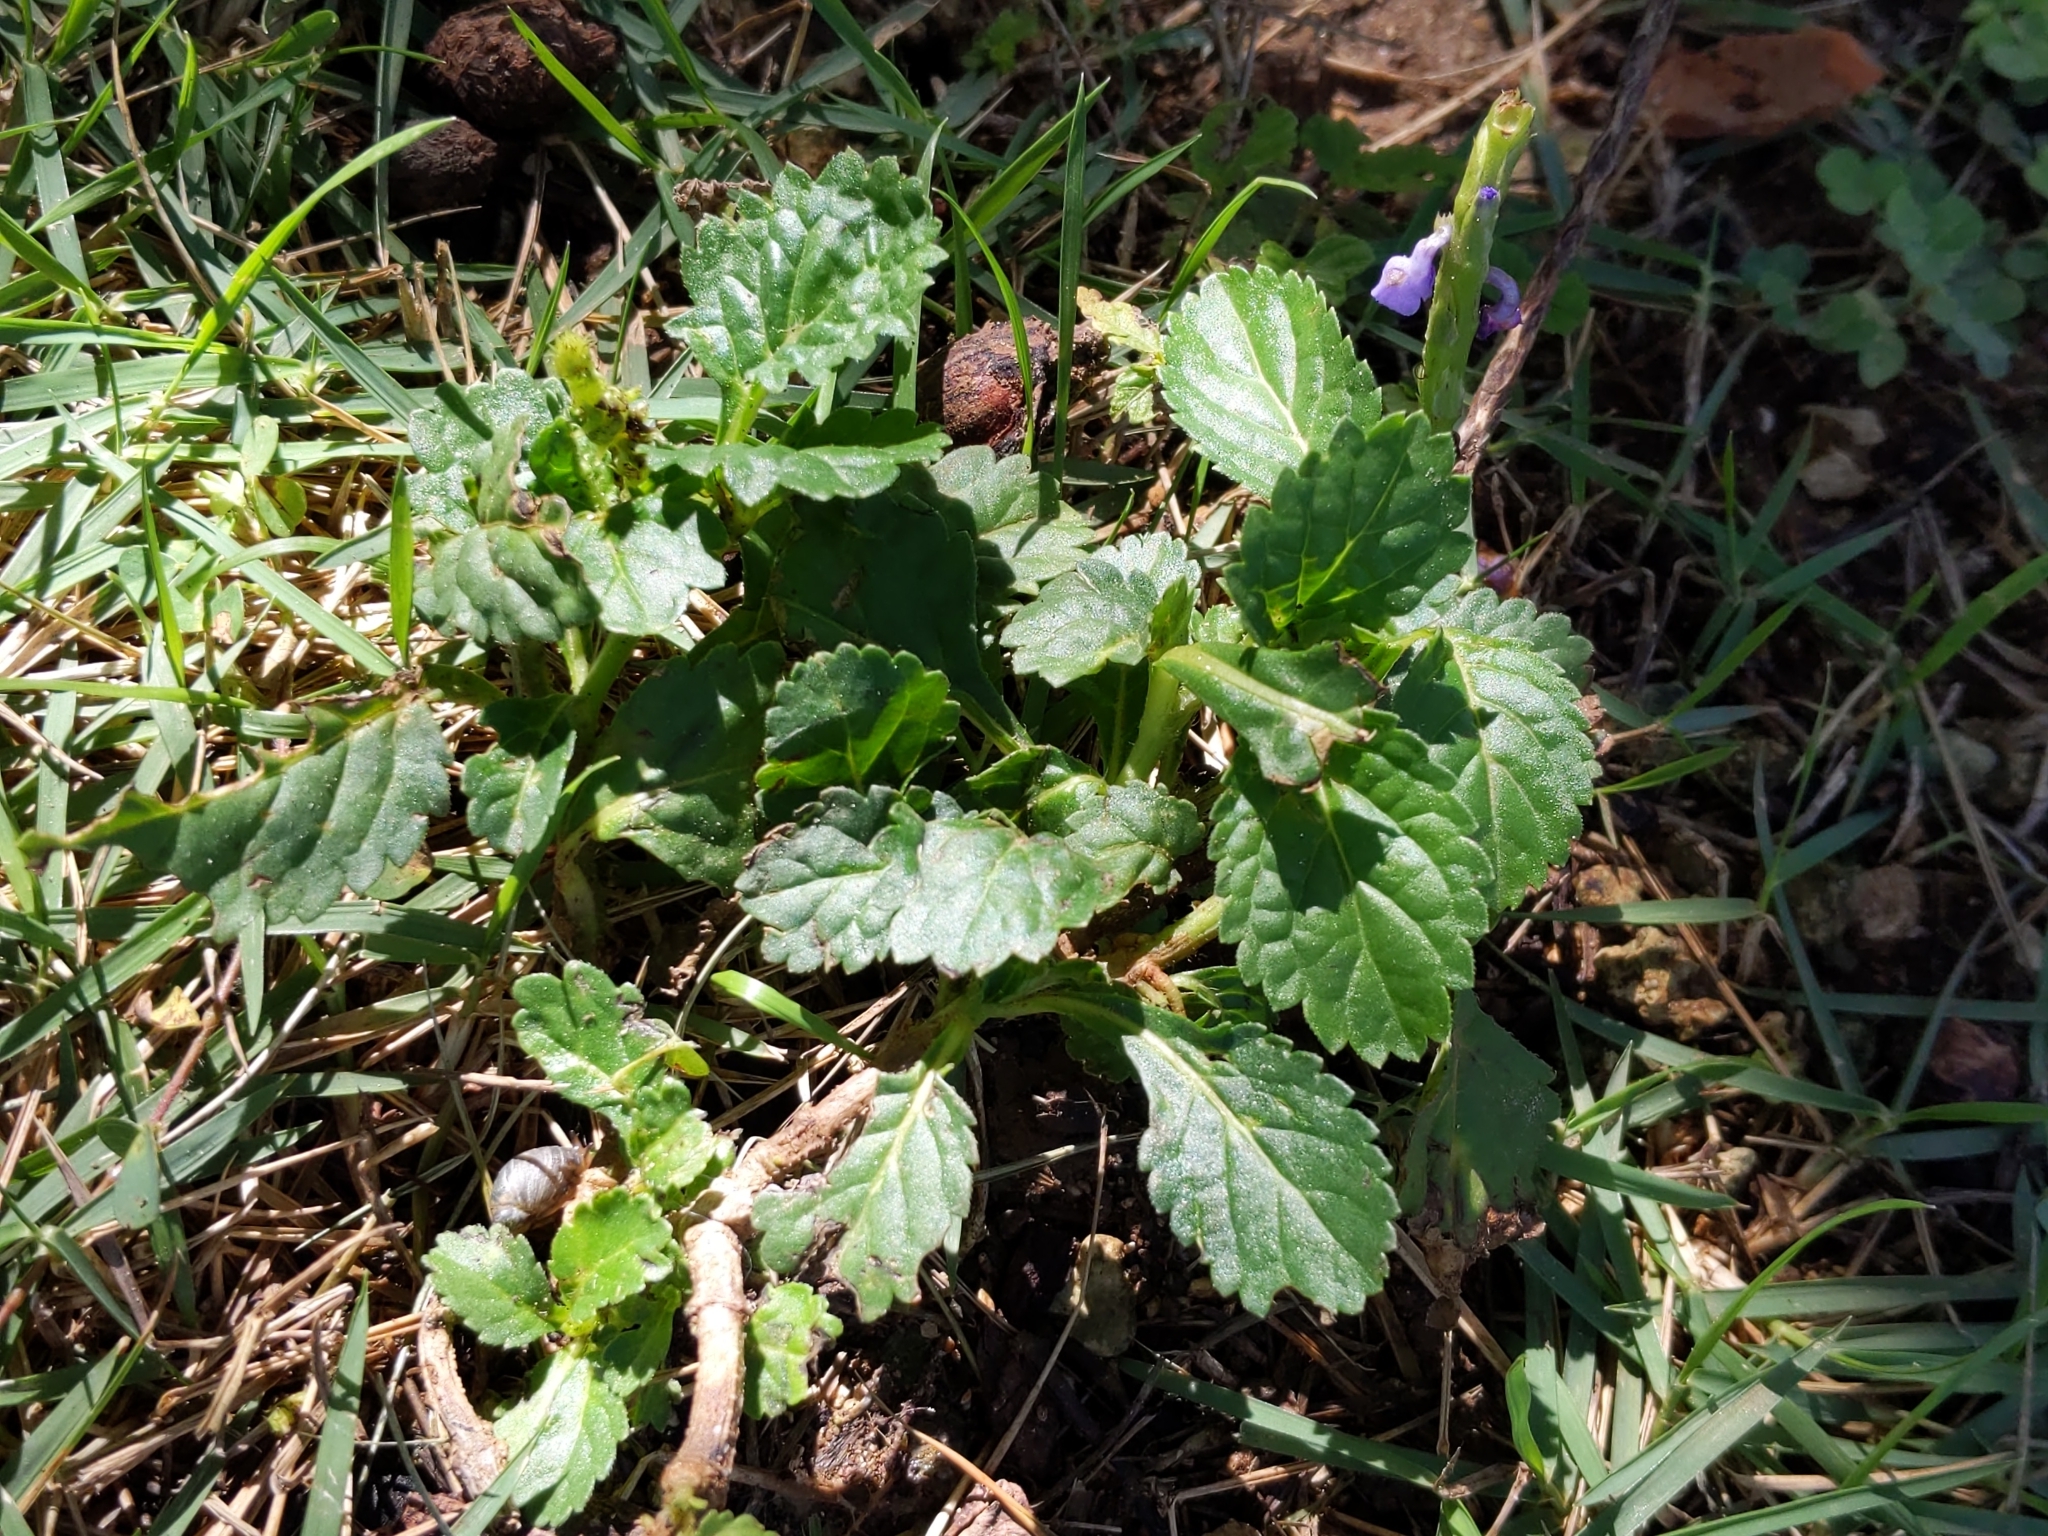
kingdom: Plantae
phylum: Tracheophyta
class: Magnoliopsida
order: Lamiales
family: Verbenaceae
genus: Stachytarpheta
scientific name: Stachytarpheta jamaicensis
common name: Light-blue snakeweed
